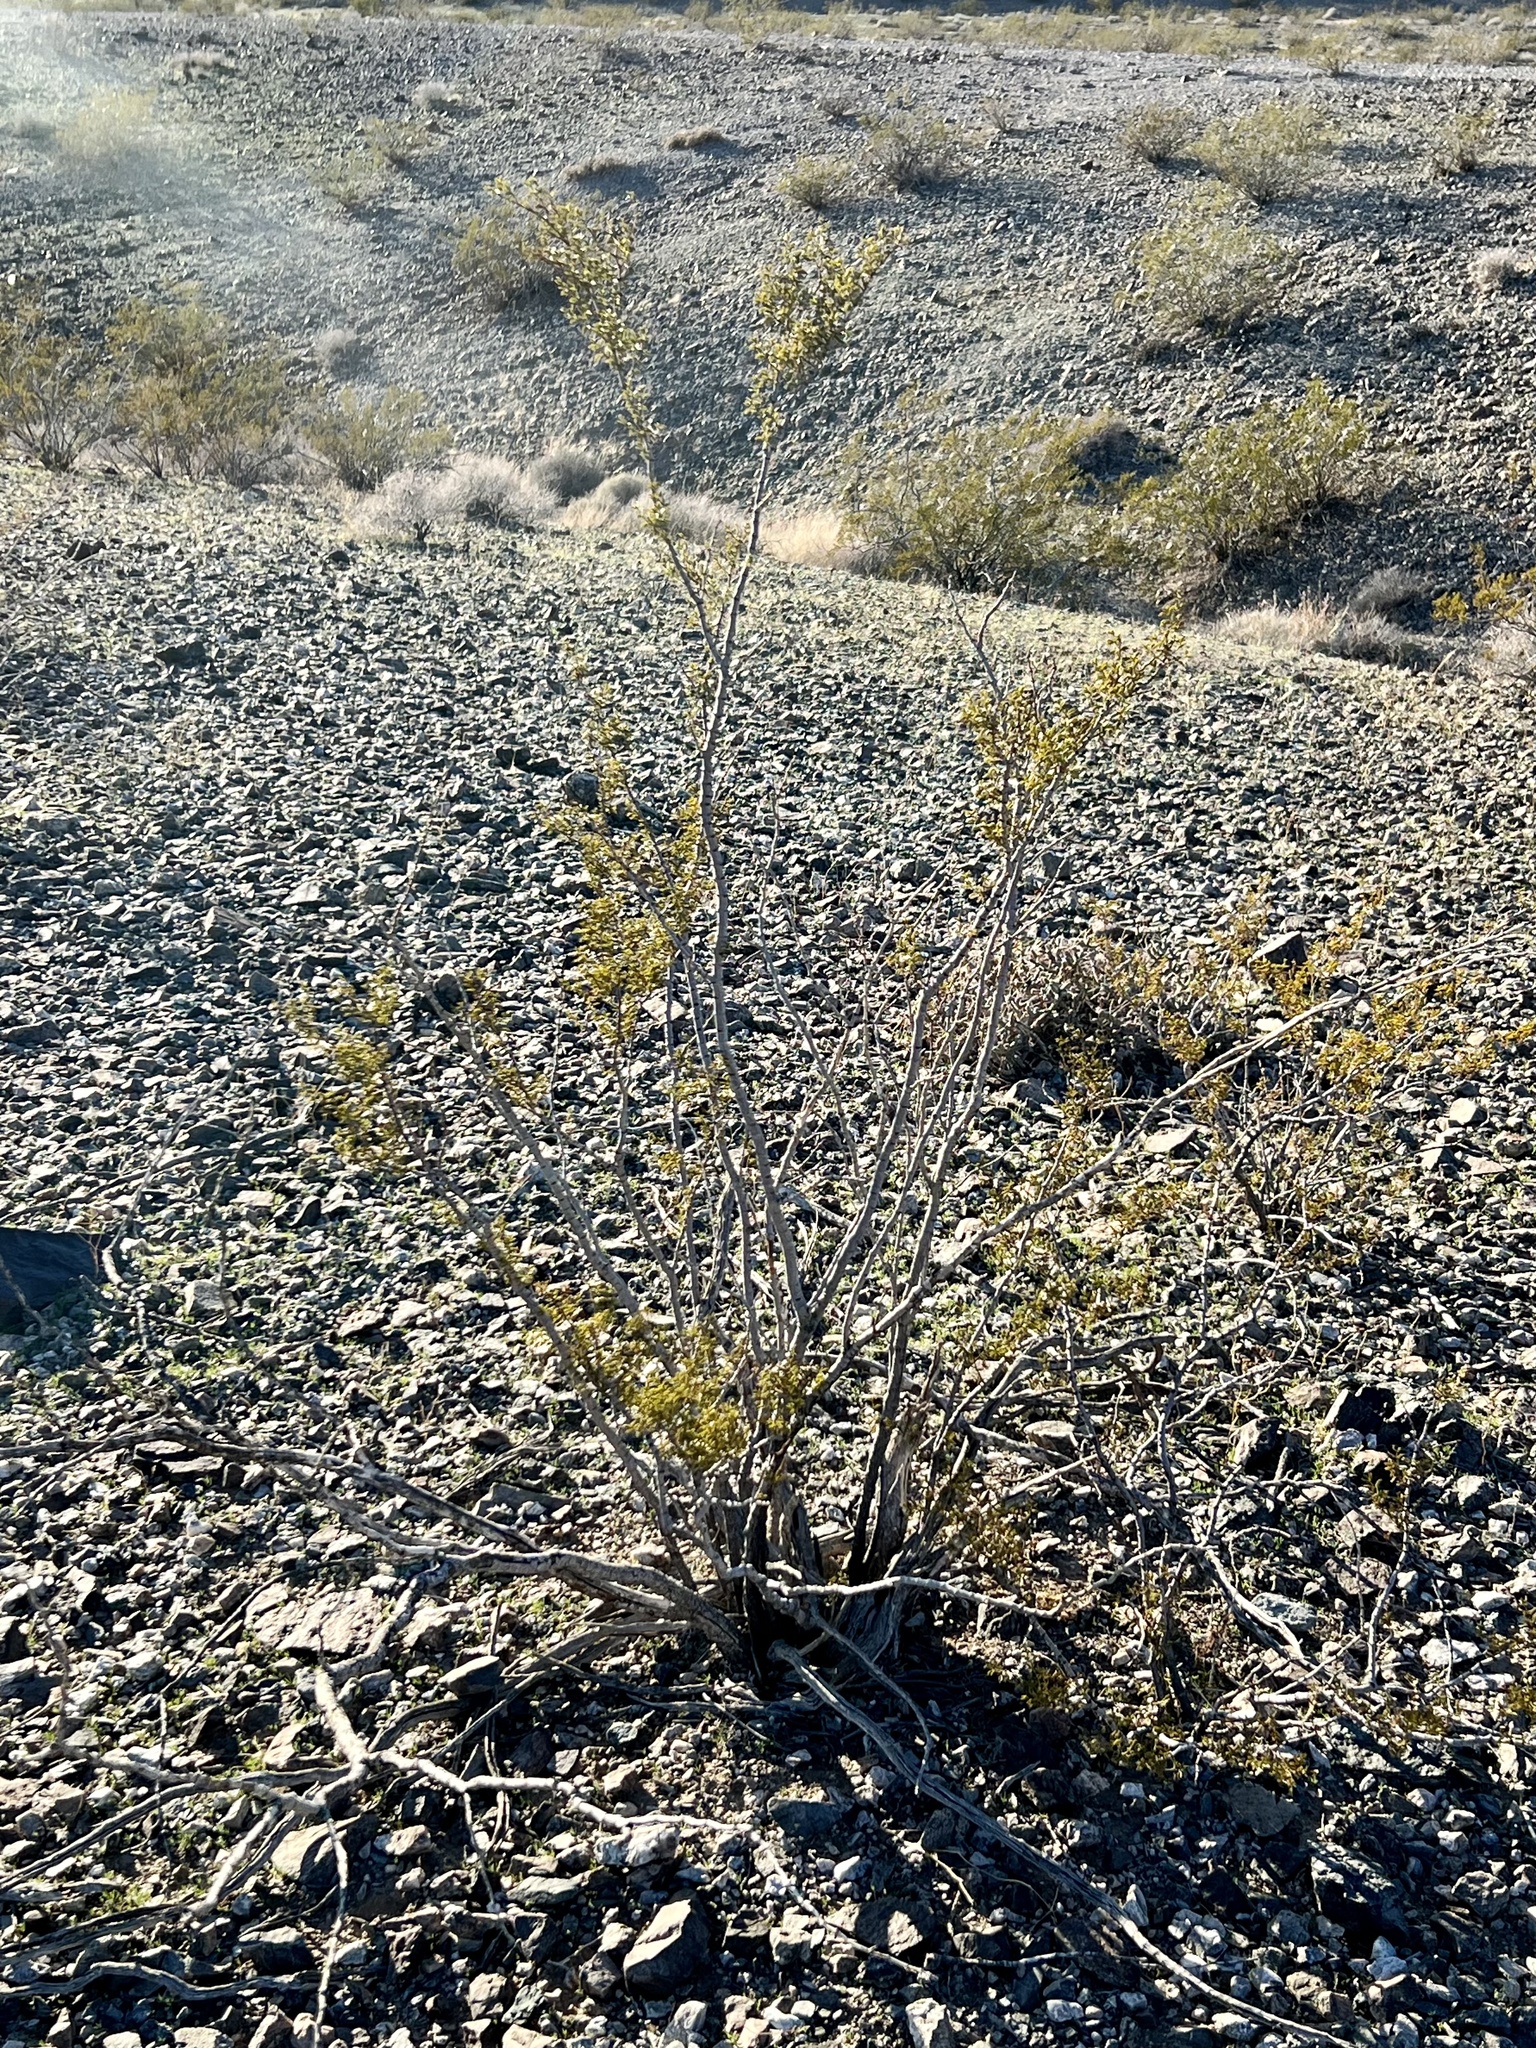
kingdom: Plantae
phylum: Tracheophyta
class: Magnoliopsida
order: Zygophyllales
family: Zygophyllaceae
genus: Larrea
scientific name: Larrea tridentata
